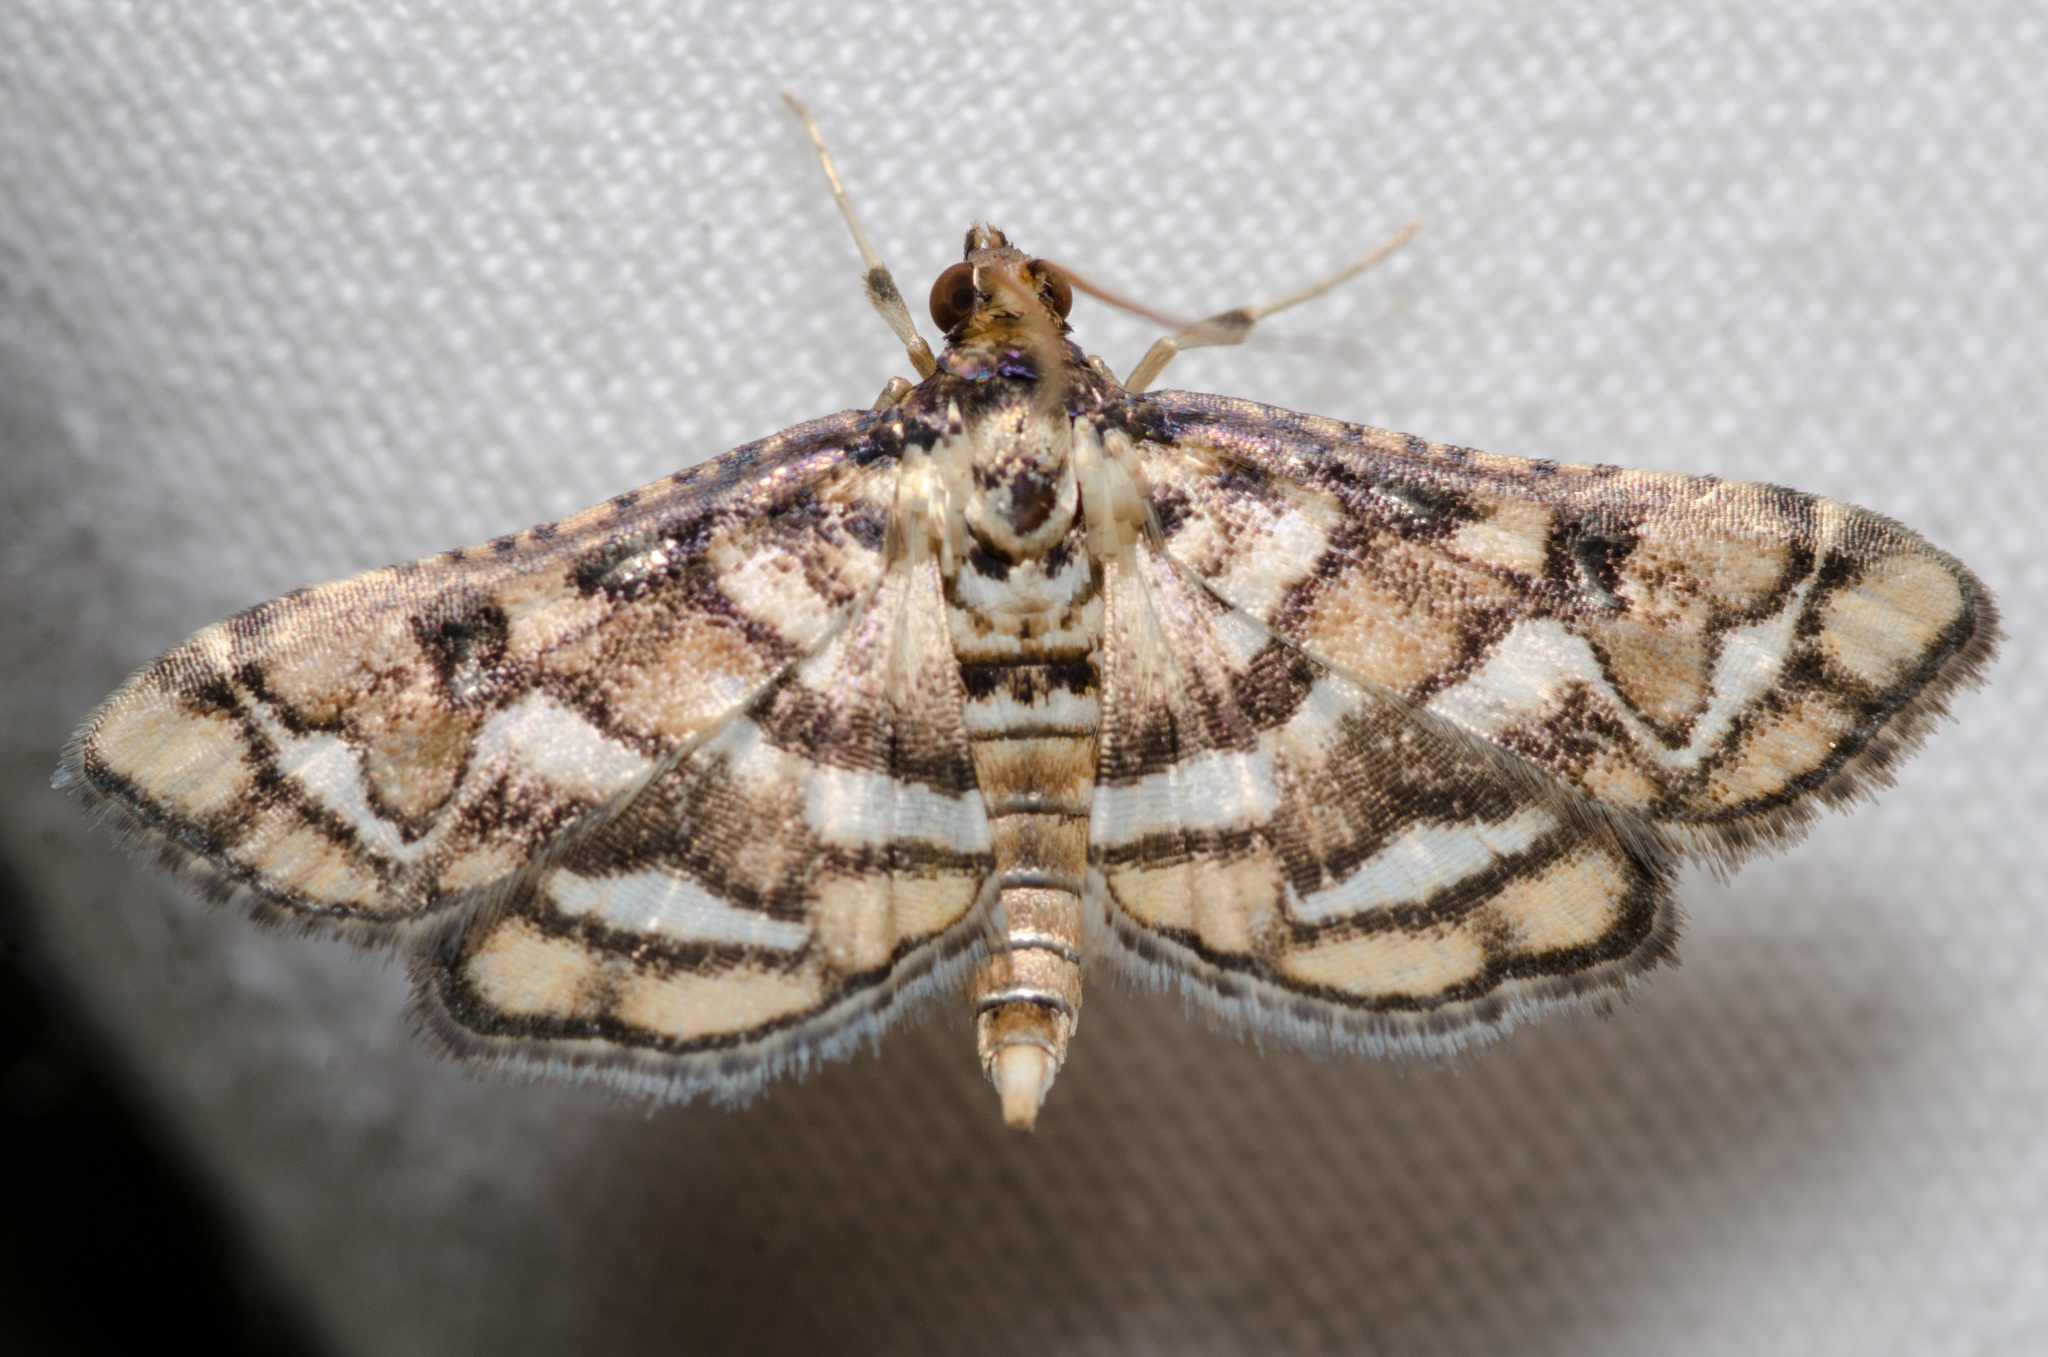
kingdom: Animalia
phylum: Arthropoda
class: Insecta
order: Lepidoptera
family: Crambidae
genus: Hileithia
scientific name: Hileithia magualis
